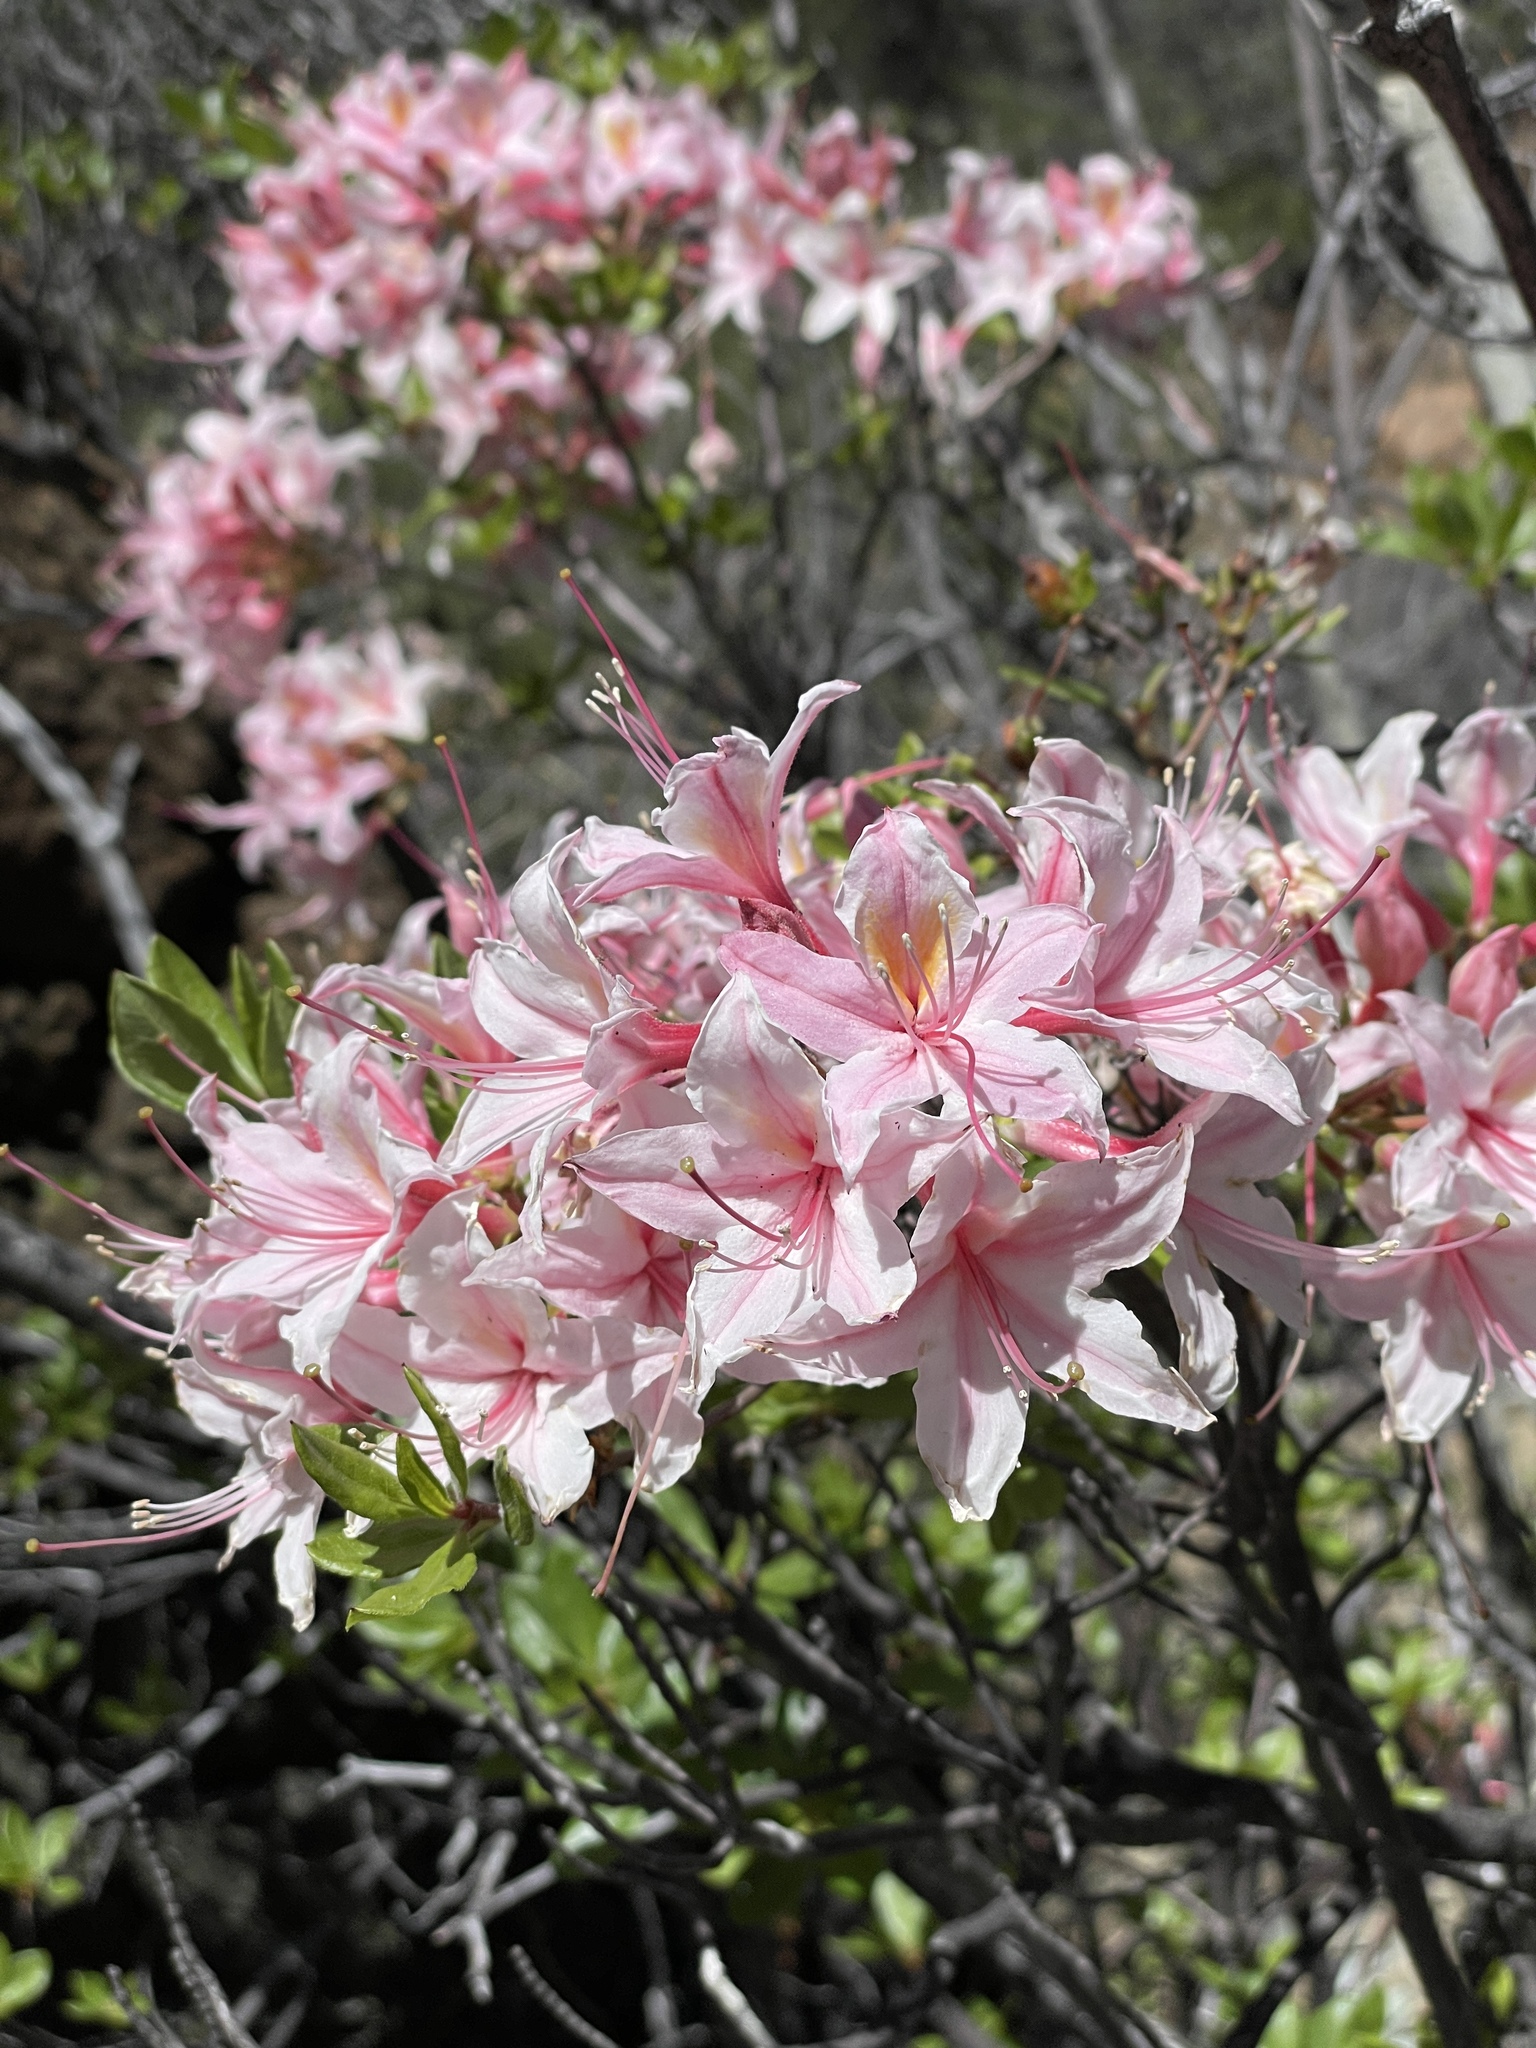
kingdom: Plantae
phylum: Tracheophyta
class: Magnoliopsida
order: Ericales
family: Ericaceae
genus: Rhododendron
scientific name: Rhododendron occidentale
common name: Western azalea
